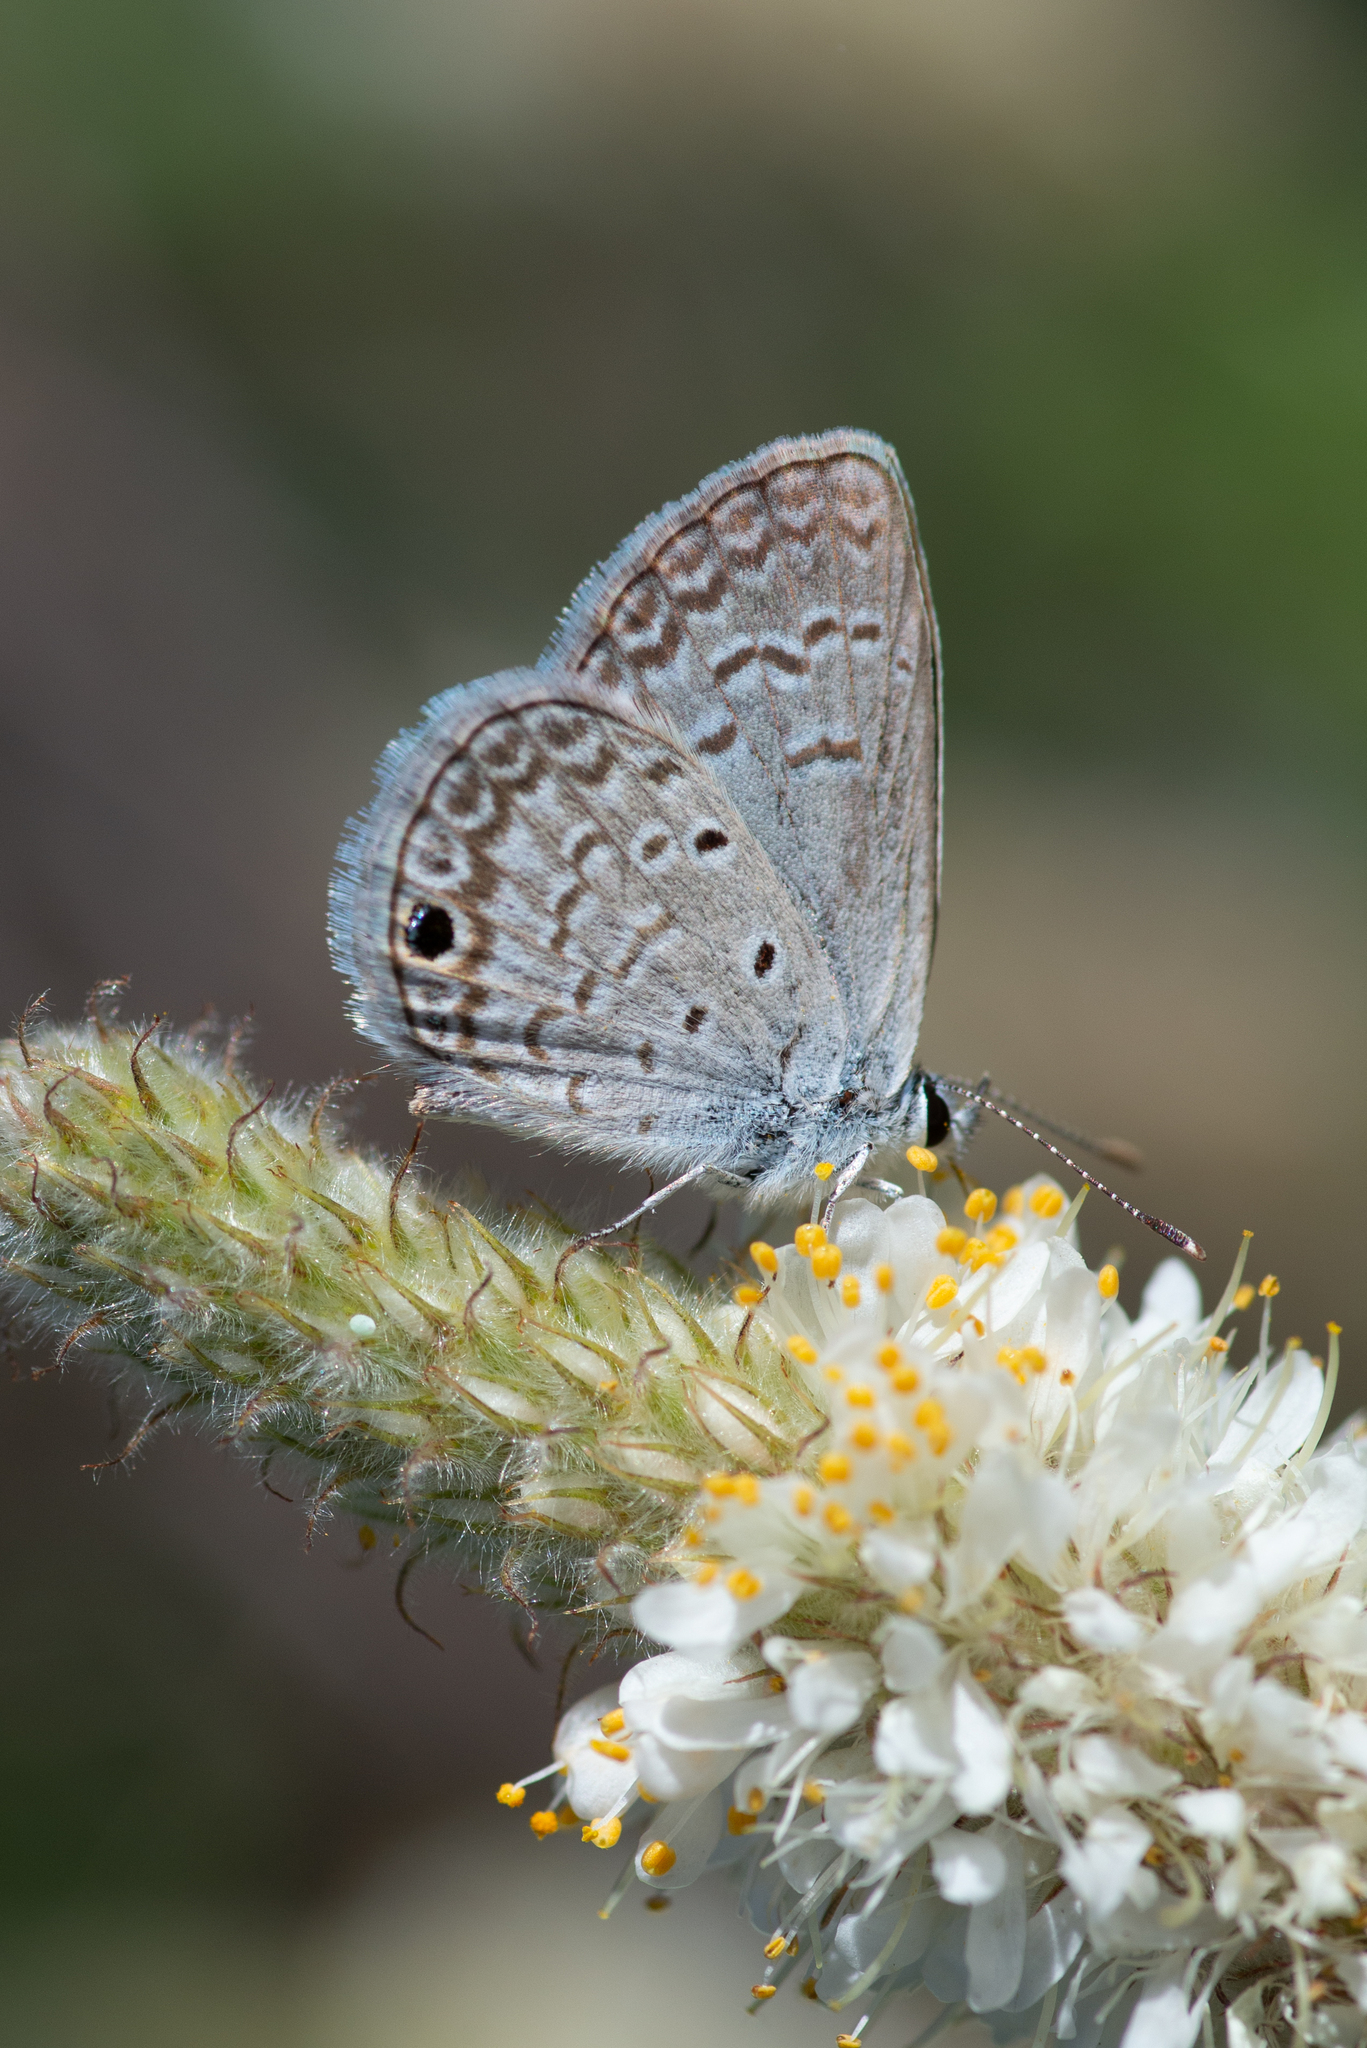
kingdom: Animalia
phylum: Arthropoda
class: Insecta
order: Lepidoptera
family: Lycaenidae
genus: Hemiargus
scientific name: Hemiargus ceraunus
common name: Ceraunus blue
